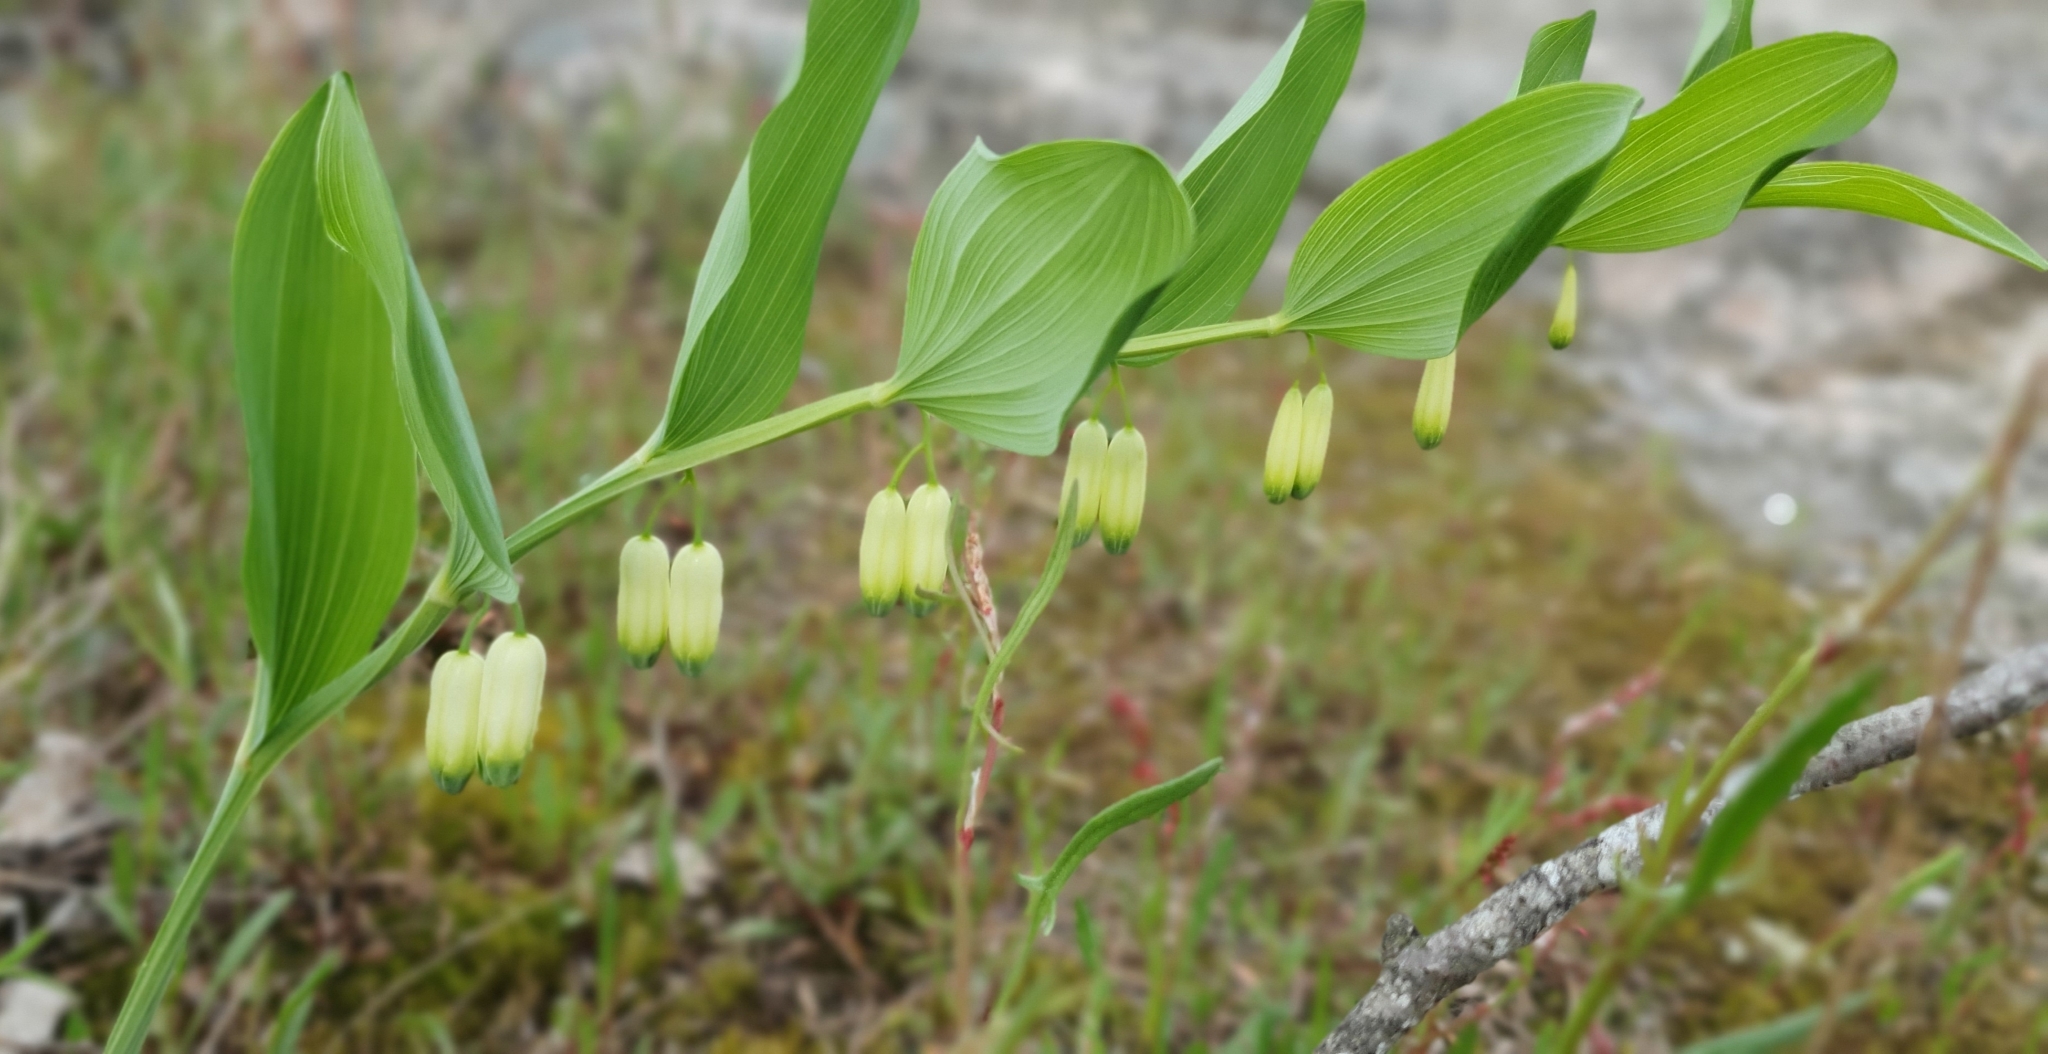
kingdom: Plantae
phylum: Tracheophyta
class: Liliopsida
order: Asparagales
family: Asparagaceae
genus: Polygonatum
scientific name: Polygonatum odoratum
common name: Angular solomon's-seal
